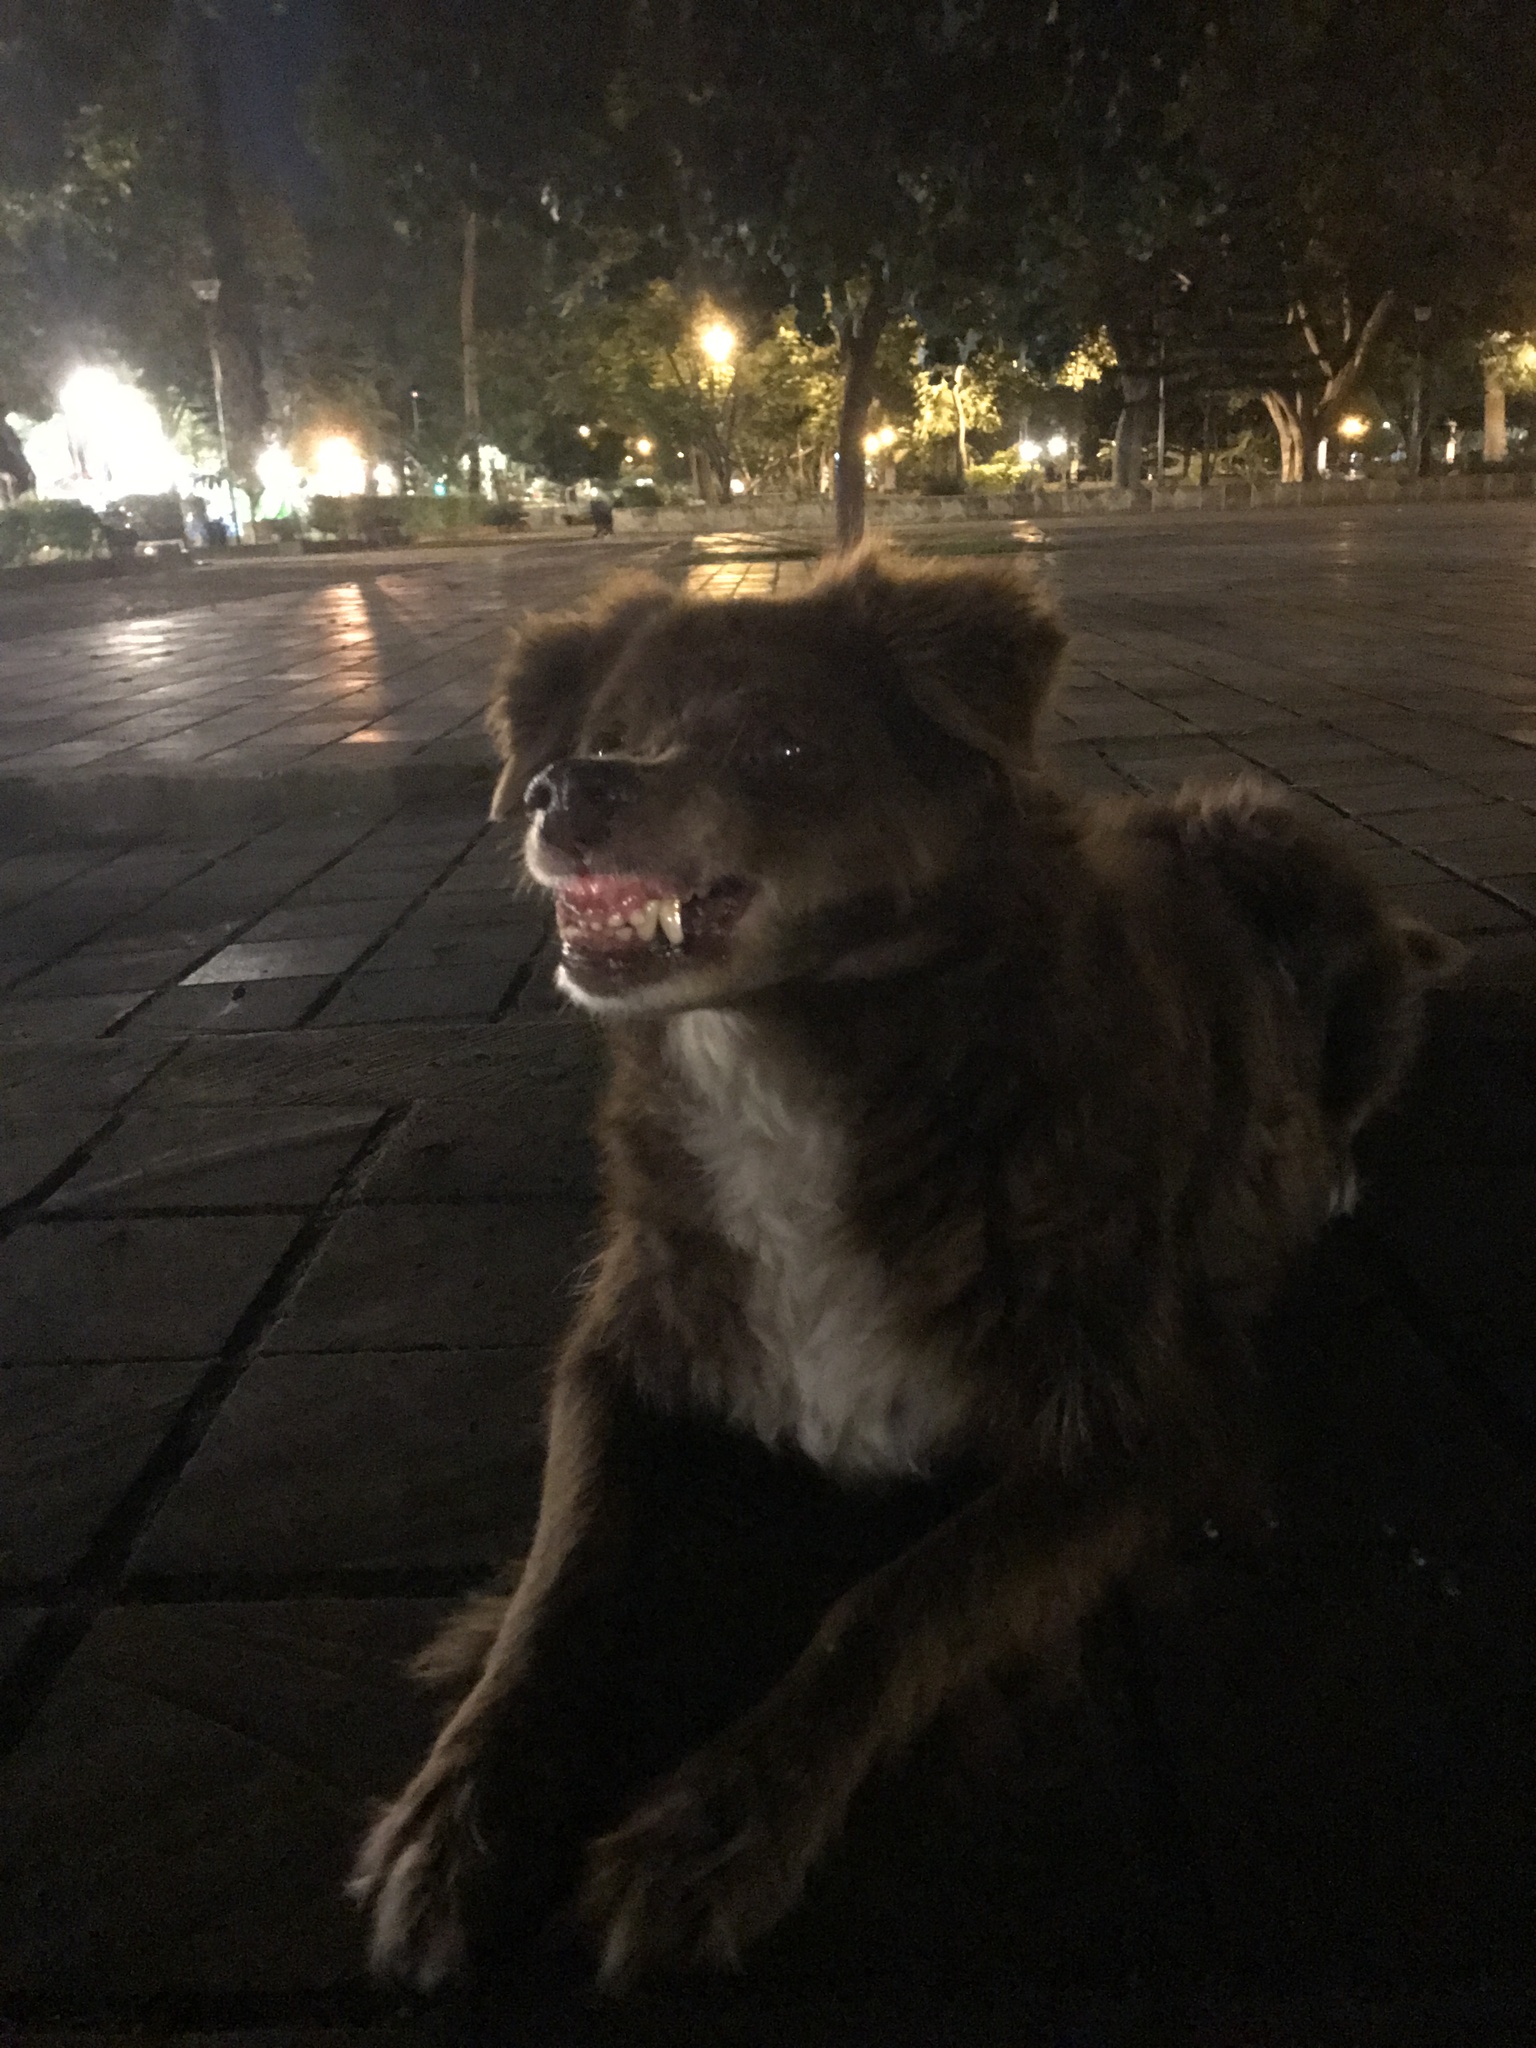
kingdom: Animalia
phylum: Chordata
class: Mammalia
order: Carnivora
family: Canidae
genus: Canis
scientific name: Canis lupus
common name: Gray wolf
